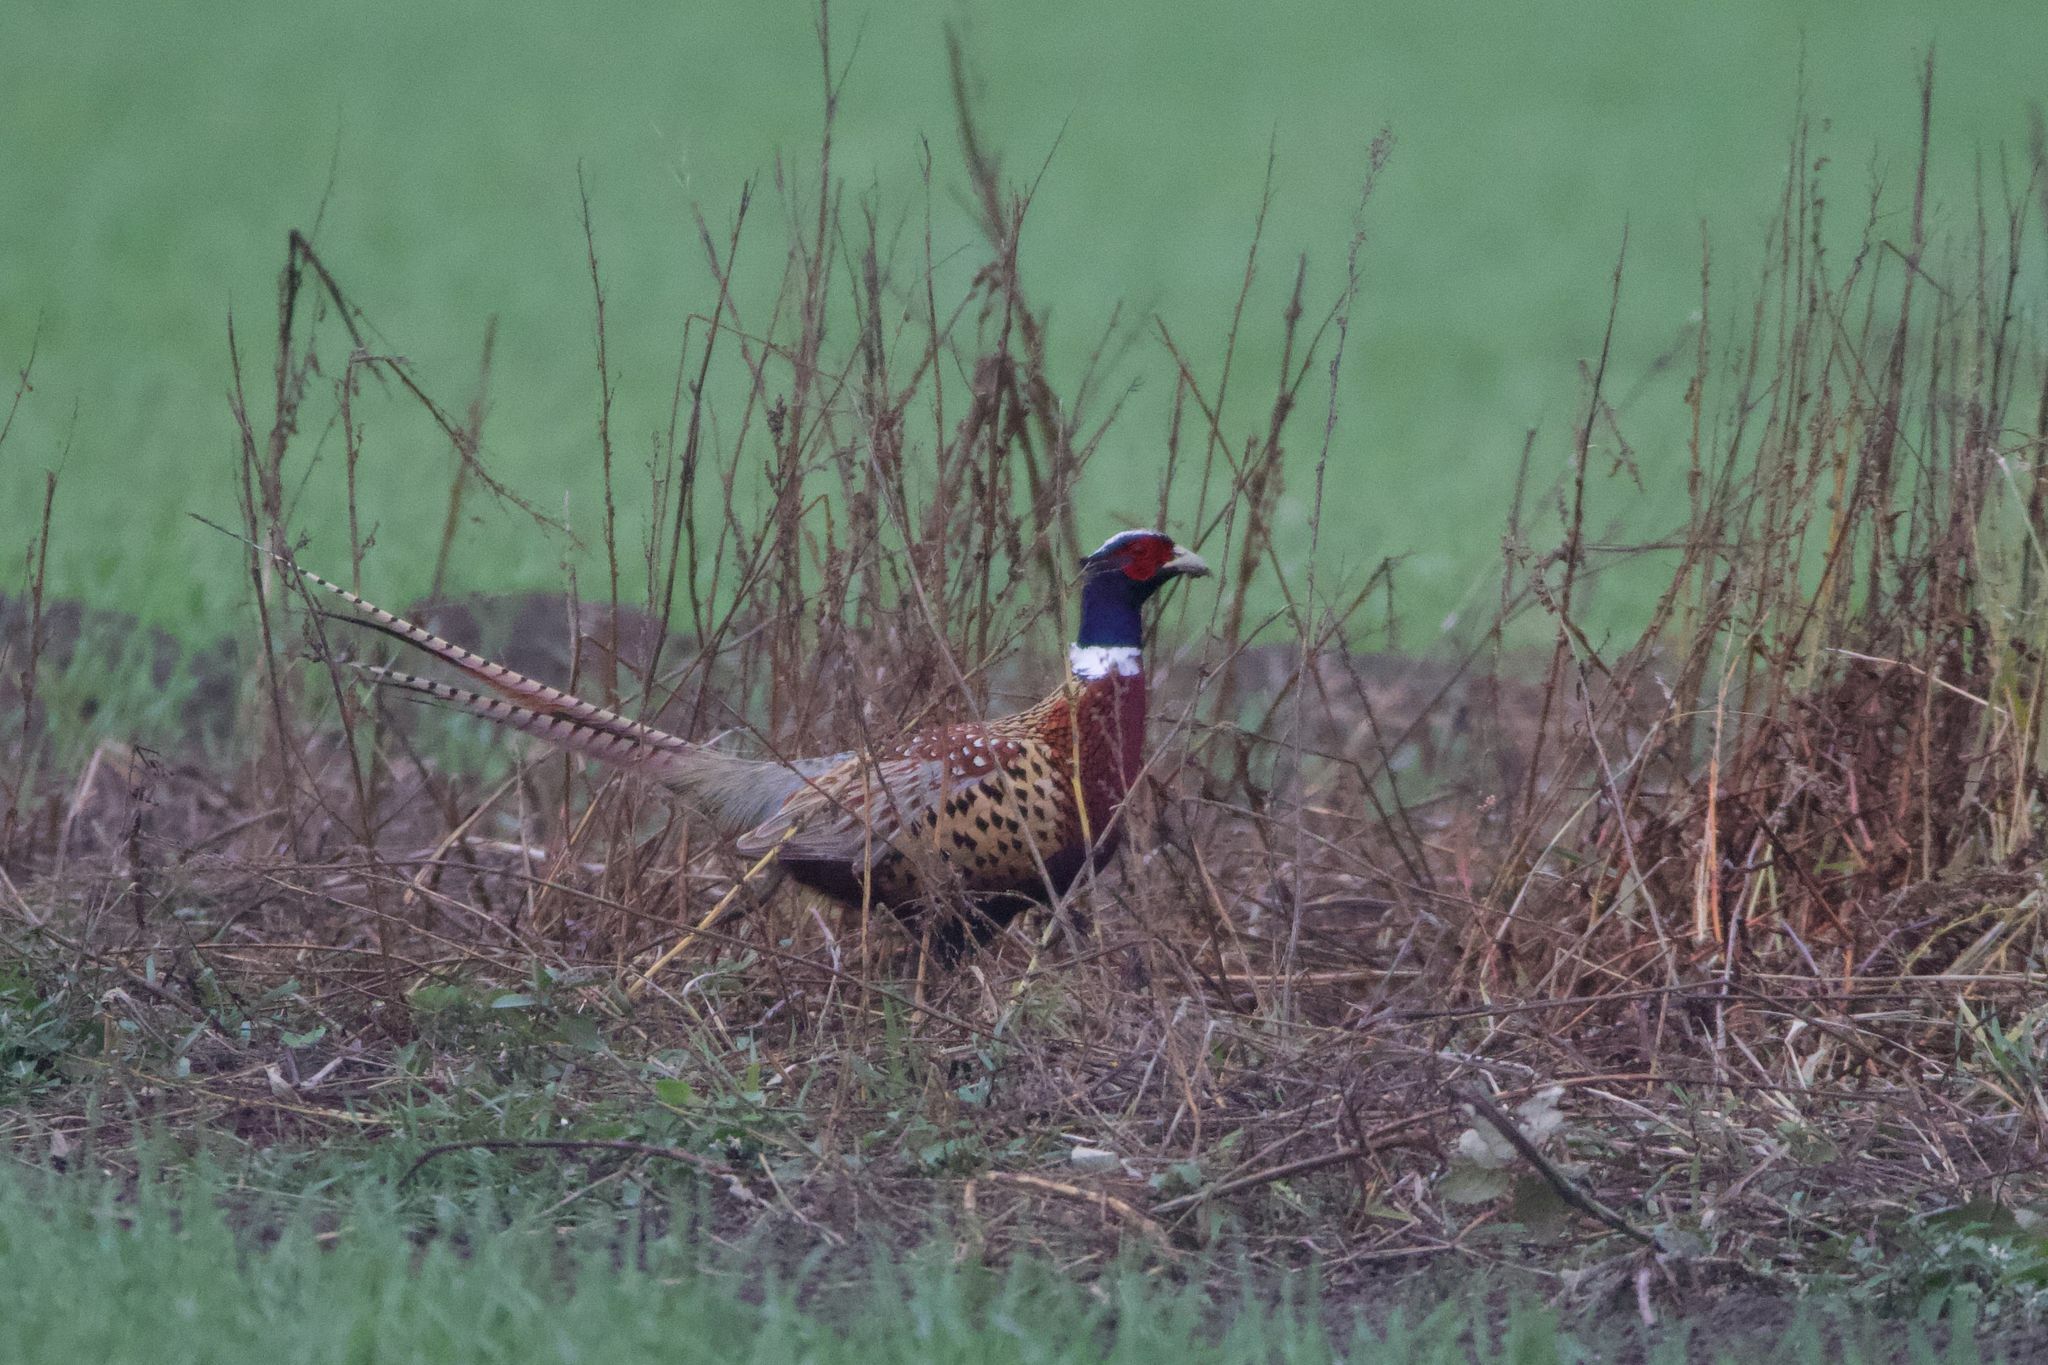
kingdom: Animalia
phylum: Chordata
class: Aves
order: Galliformes
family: Phasianidae
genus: Phasianus
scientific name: Phasianus colchicus
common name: Common pheasant
